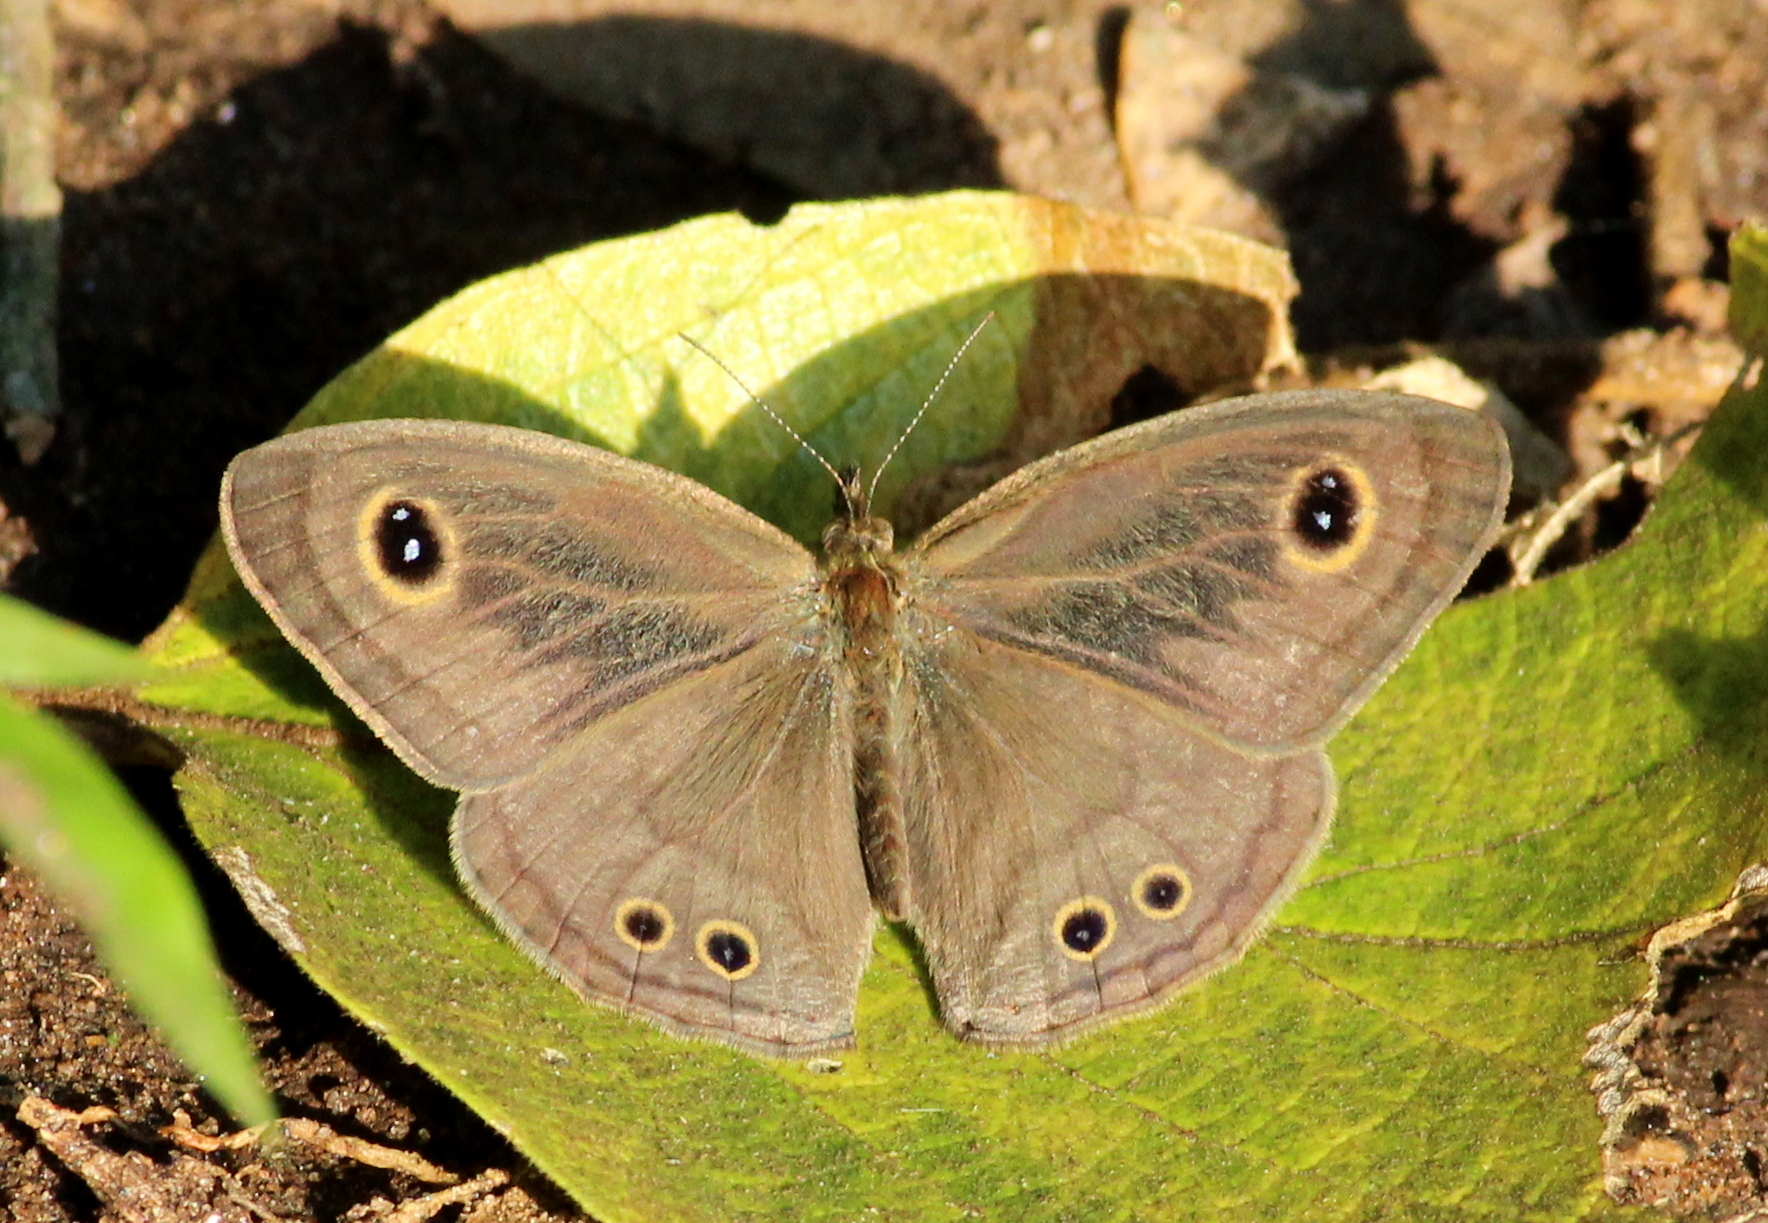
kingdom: Animalia
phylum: Arthropoda
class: Insecta
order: Lepidoptera
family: Nymphalidae
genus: Ypthima
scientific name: Ypthima baldus
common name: Common five-ring
